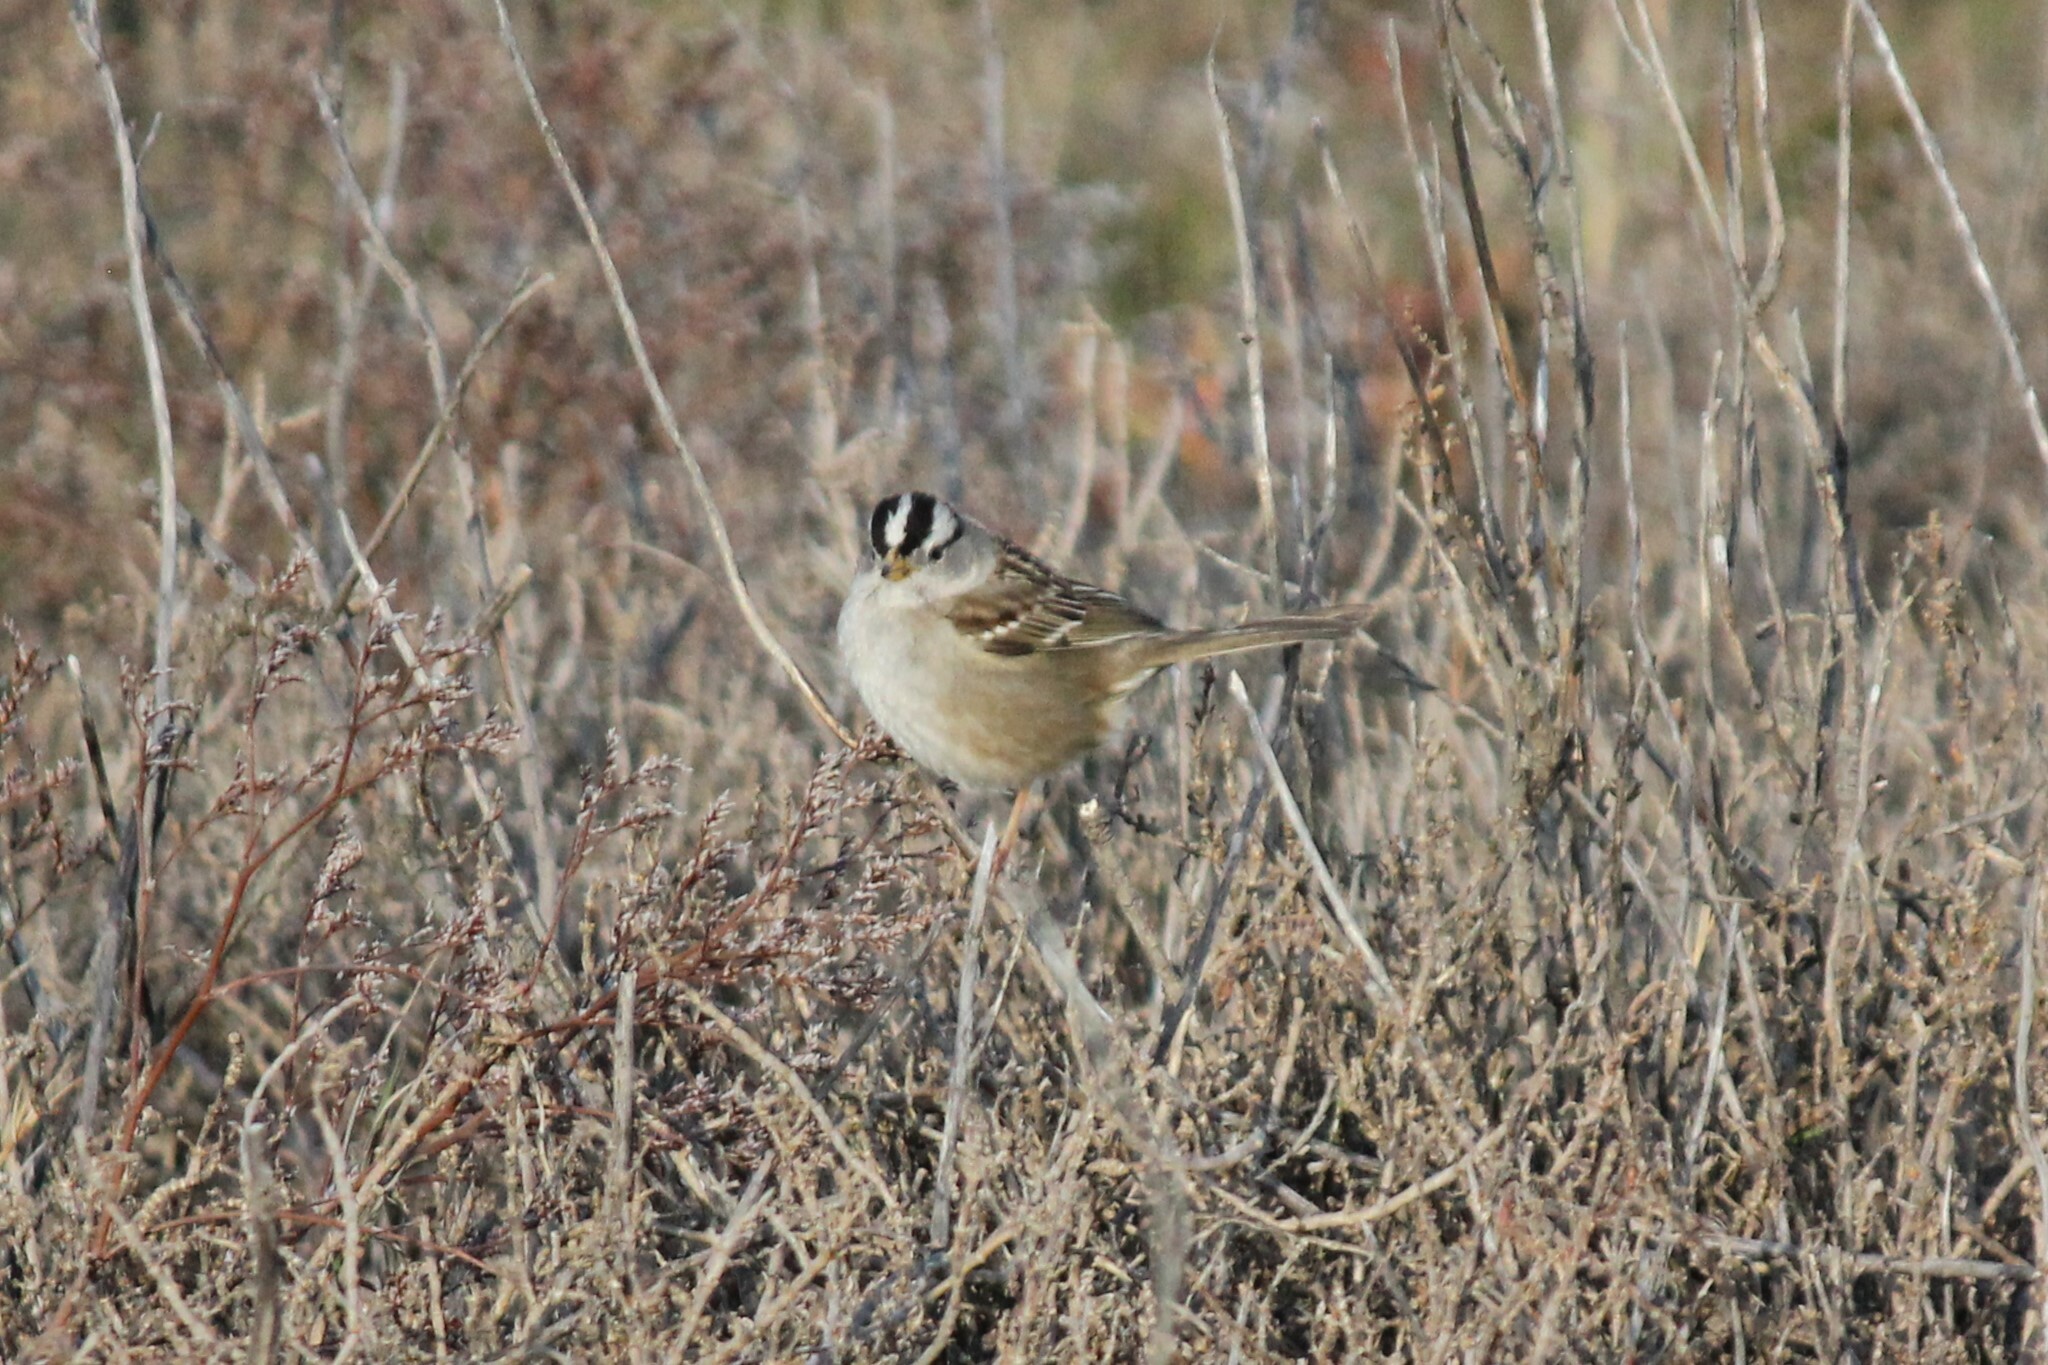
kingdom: Animalia
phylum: Chordata
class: Aves
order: Passeriformes
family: Passerellidae
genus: Zonotrichia
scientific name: Zonotrichia leucophrys
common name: White-crowned sparrow
